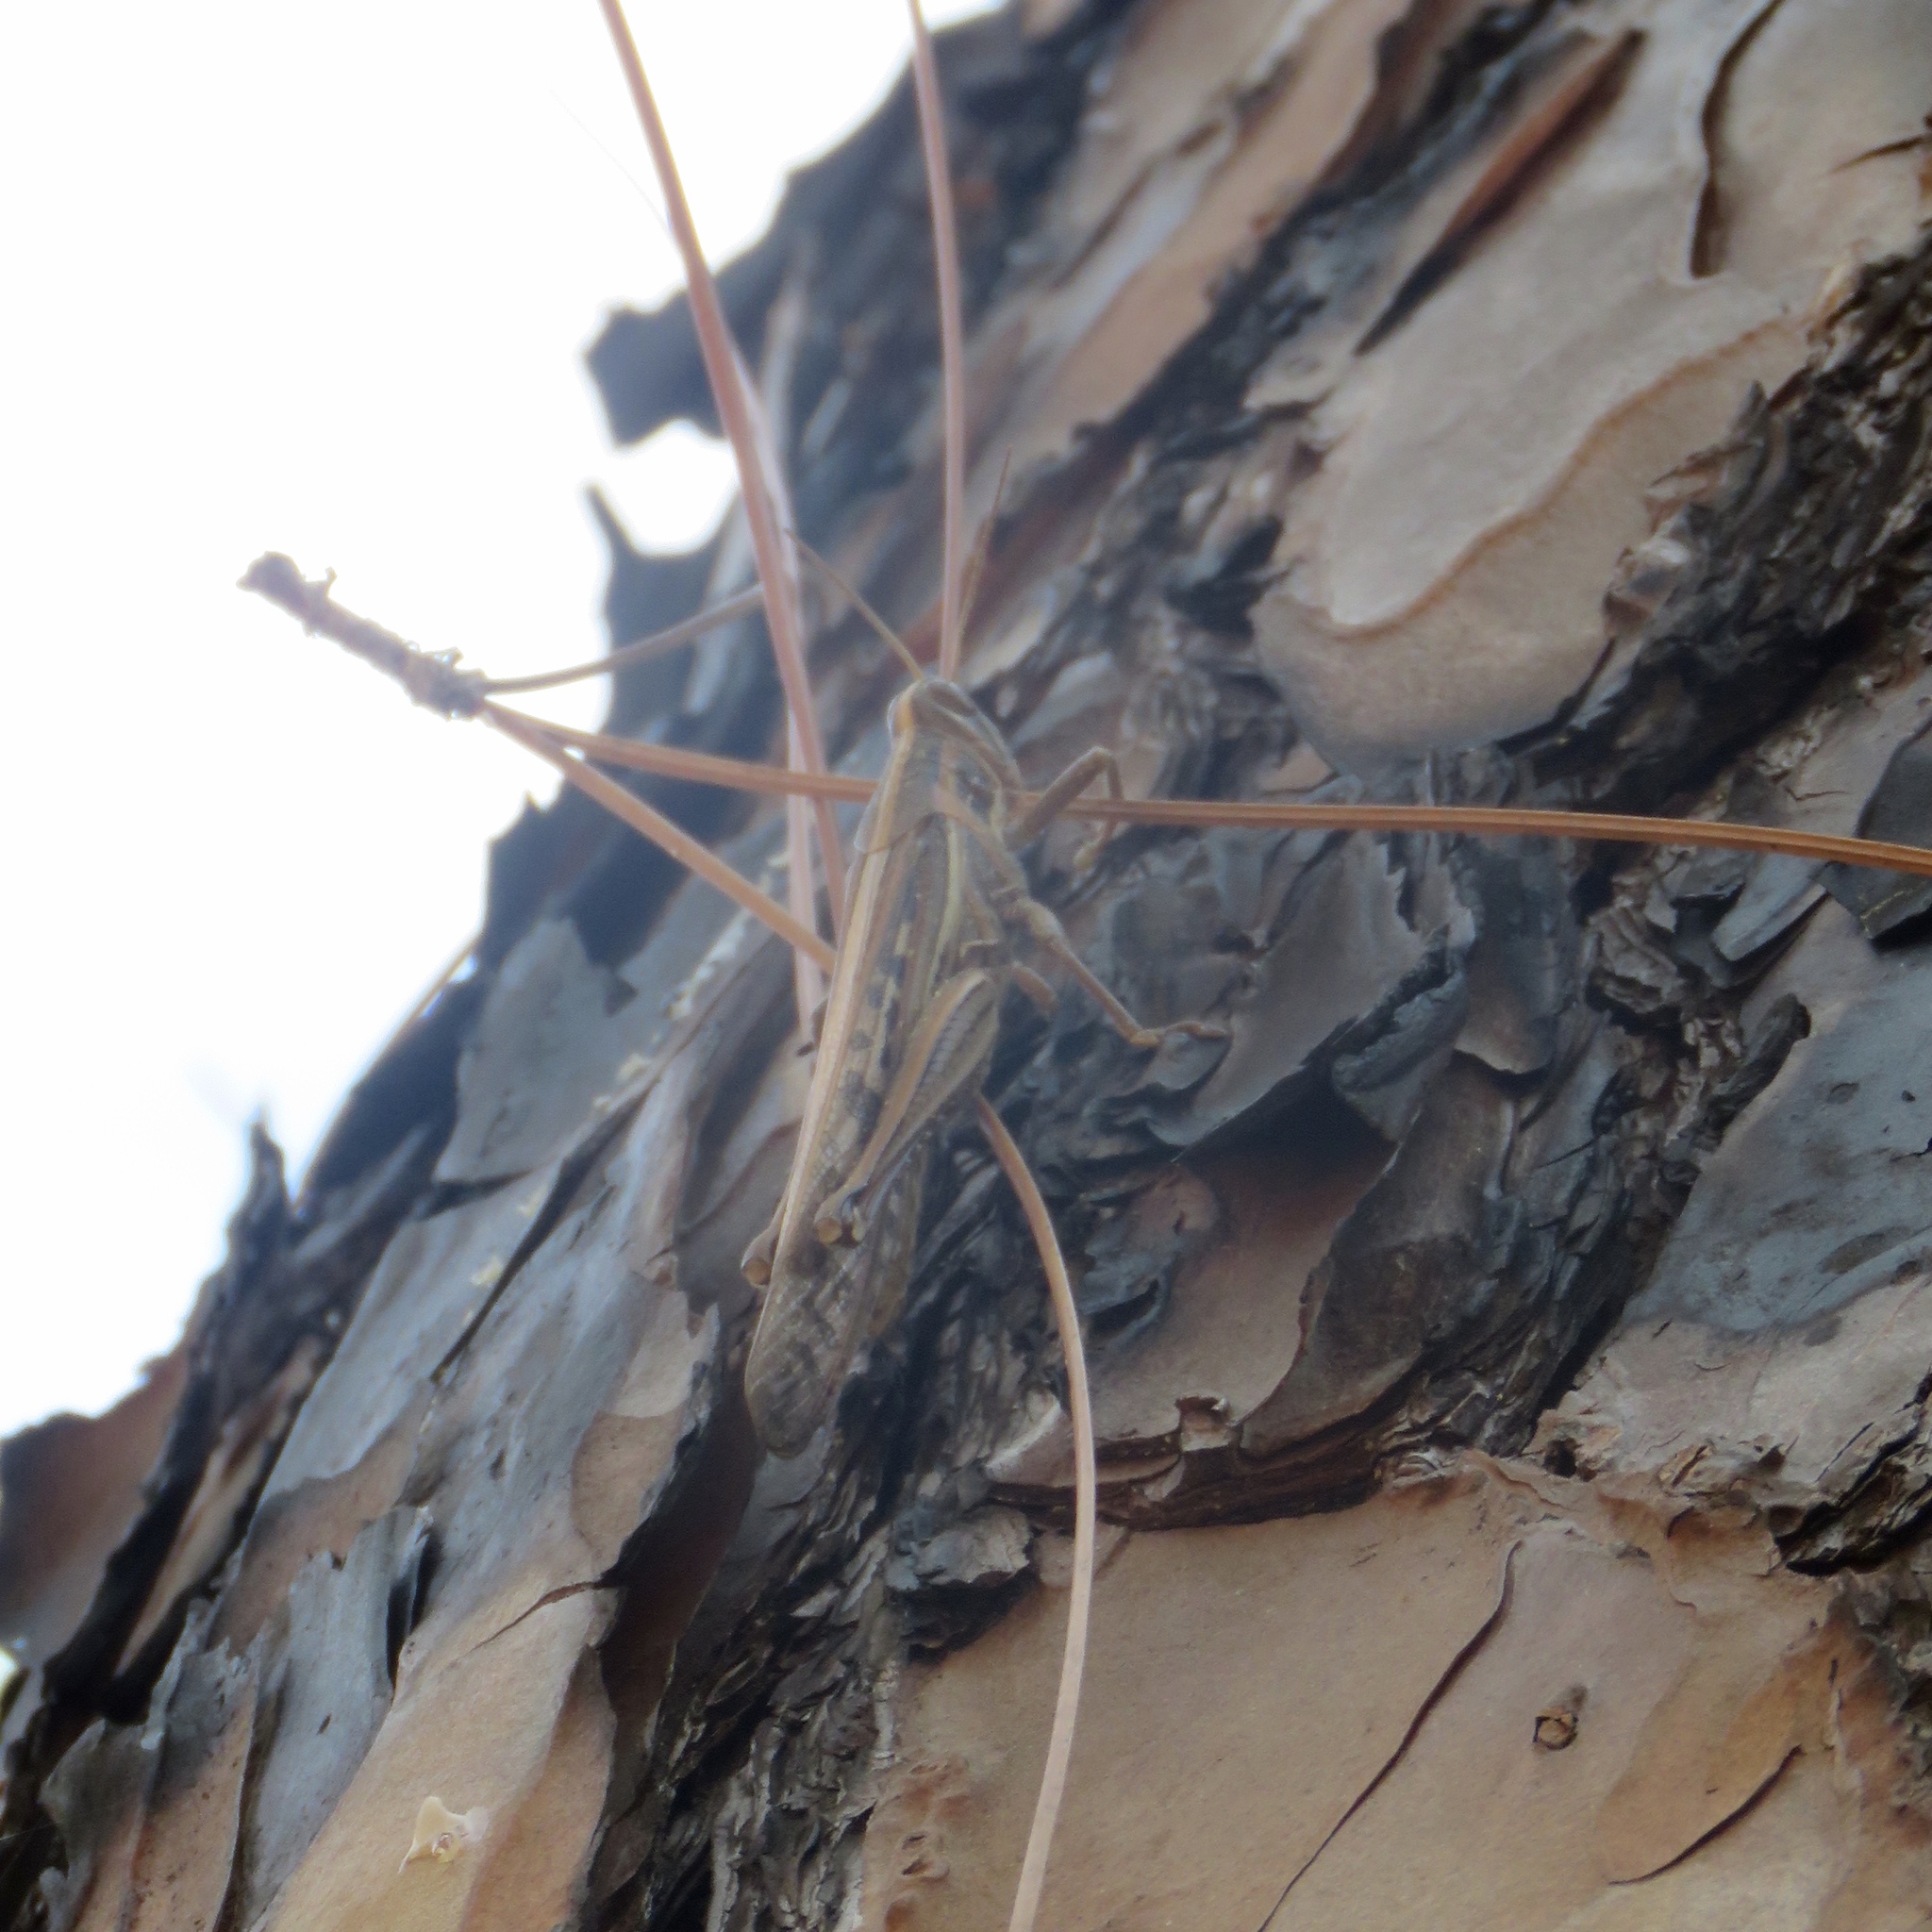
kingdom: Animalia
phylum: Arthropoda
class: Insecta
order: Orthoptera
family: Acrididae
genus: Schistocerca
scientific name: Schistocerca americana
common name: American bird locust
